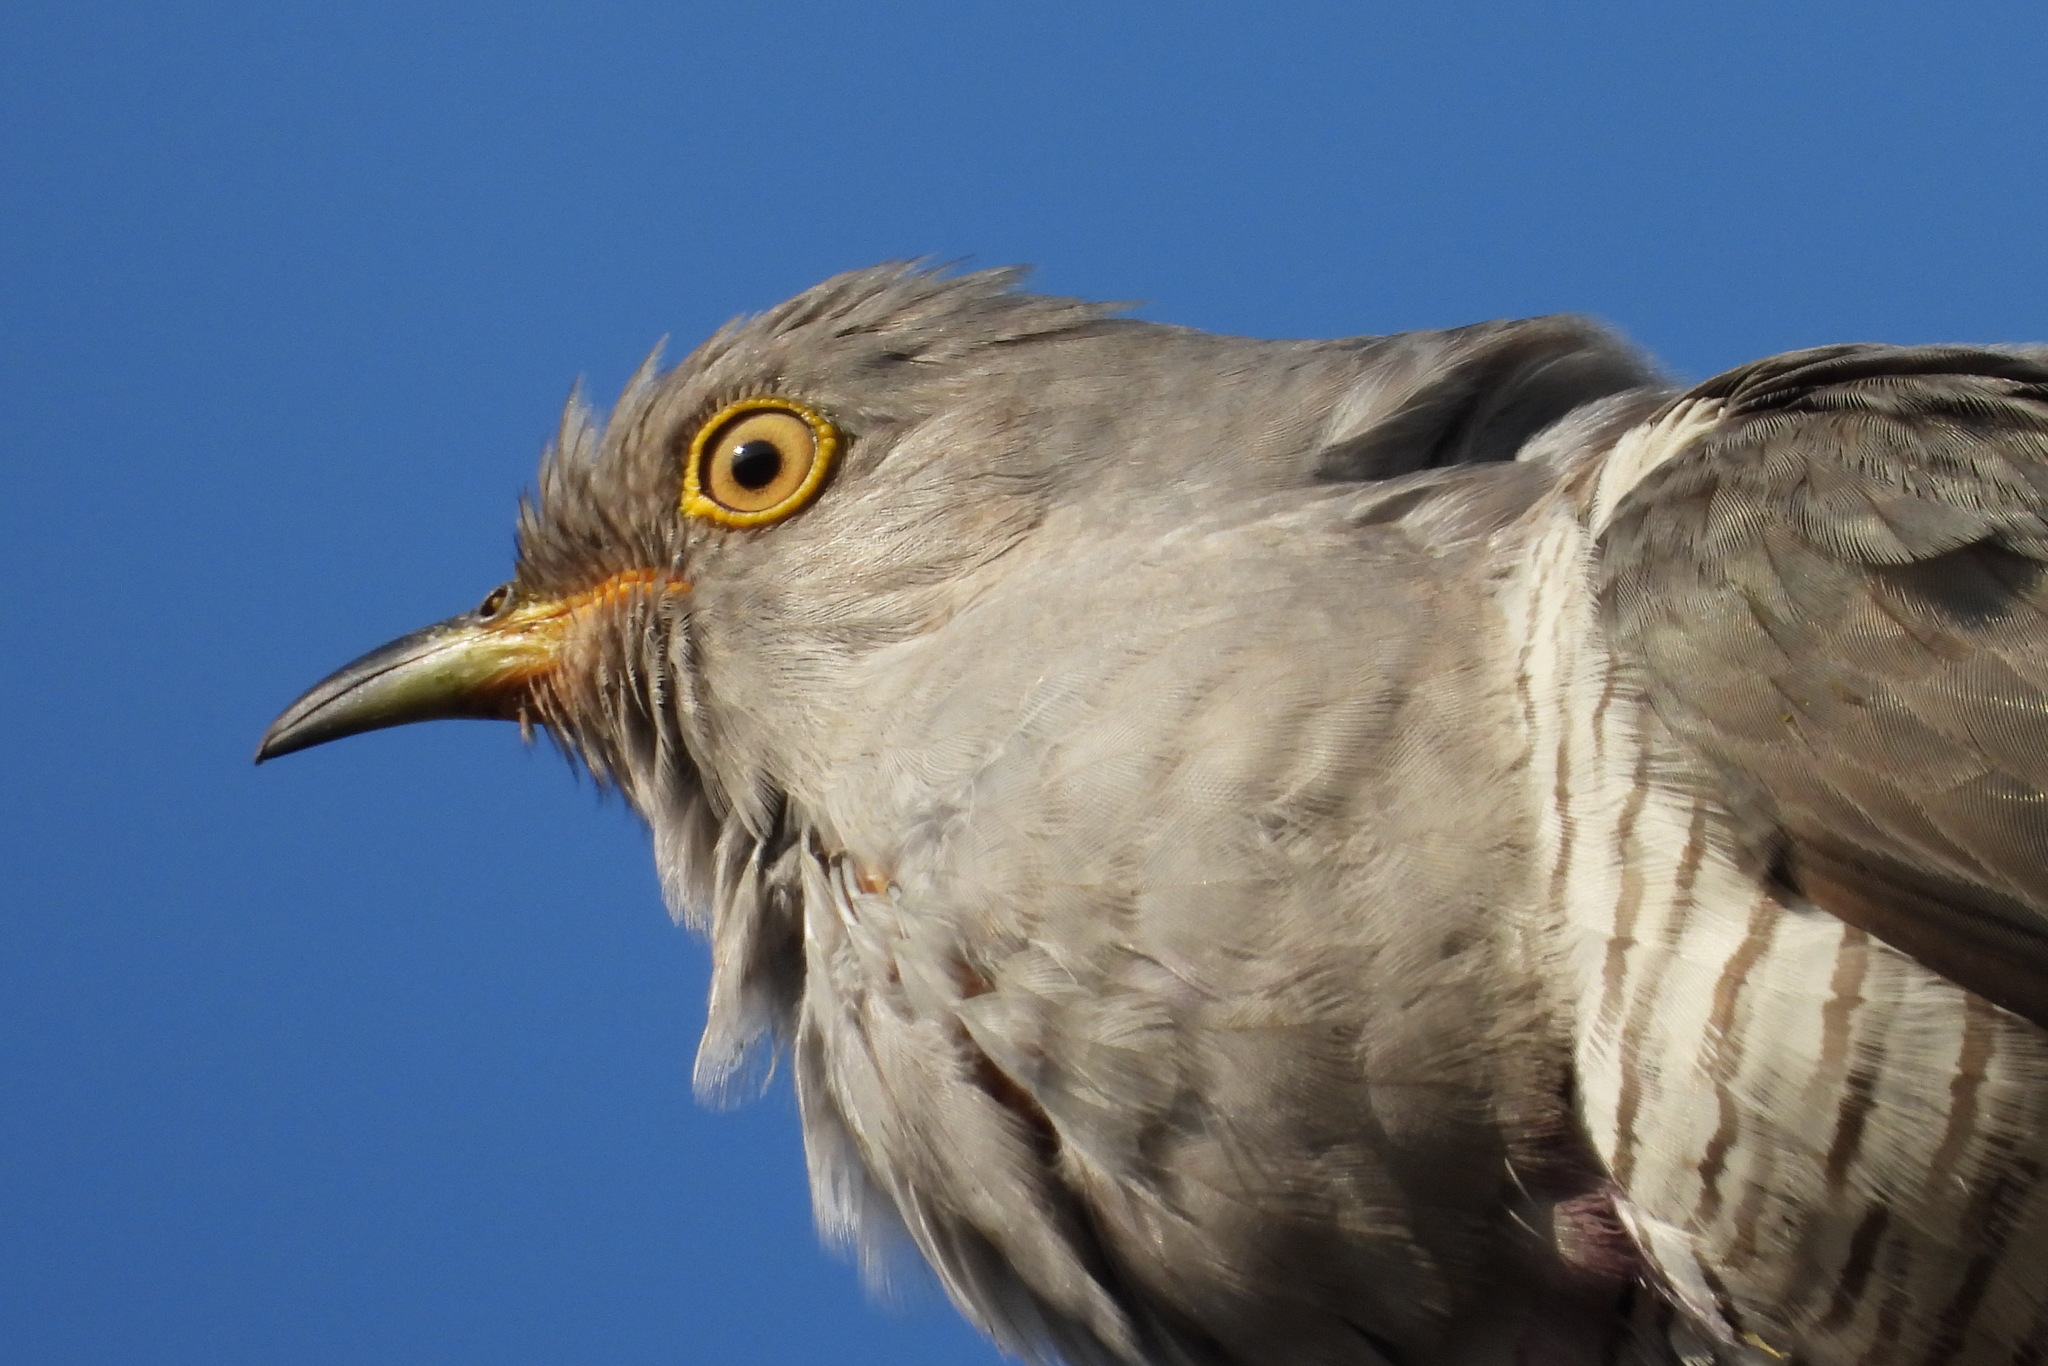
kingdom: Animalia
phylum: Chordata
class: Aves
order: Cuculiformes
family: Cuculidae
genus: Cuculus
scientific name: Cuculus canorus
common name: Common cuckoo
